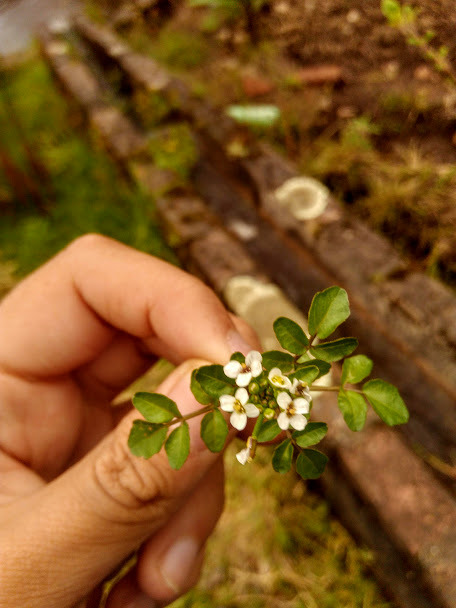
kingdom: Plantae
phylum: Tracheophyta
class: Magnoliopsida
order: Brassicales
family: Brassicaceae
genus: Nasturtium
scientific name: Nasturtium officinale
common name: Watercress
